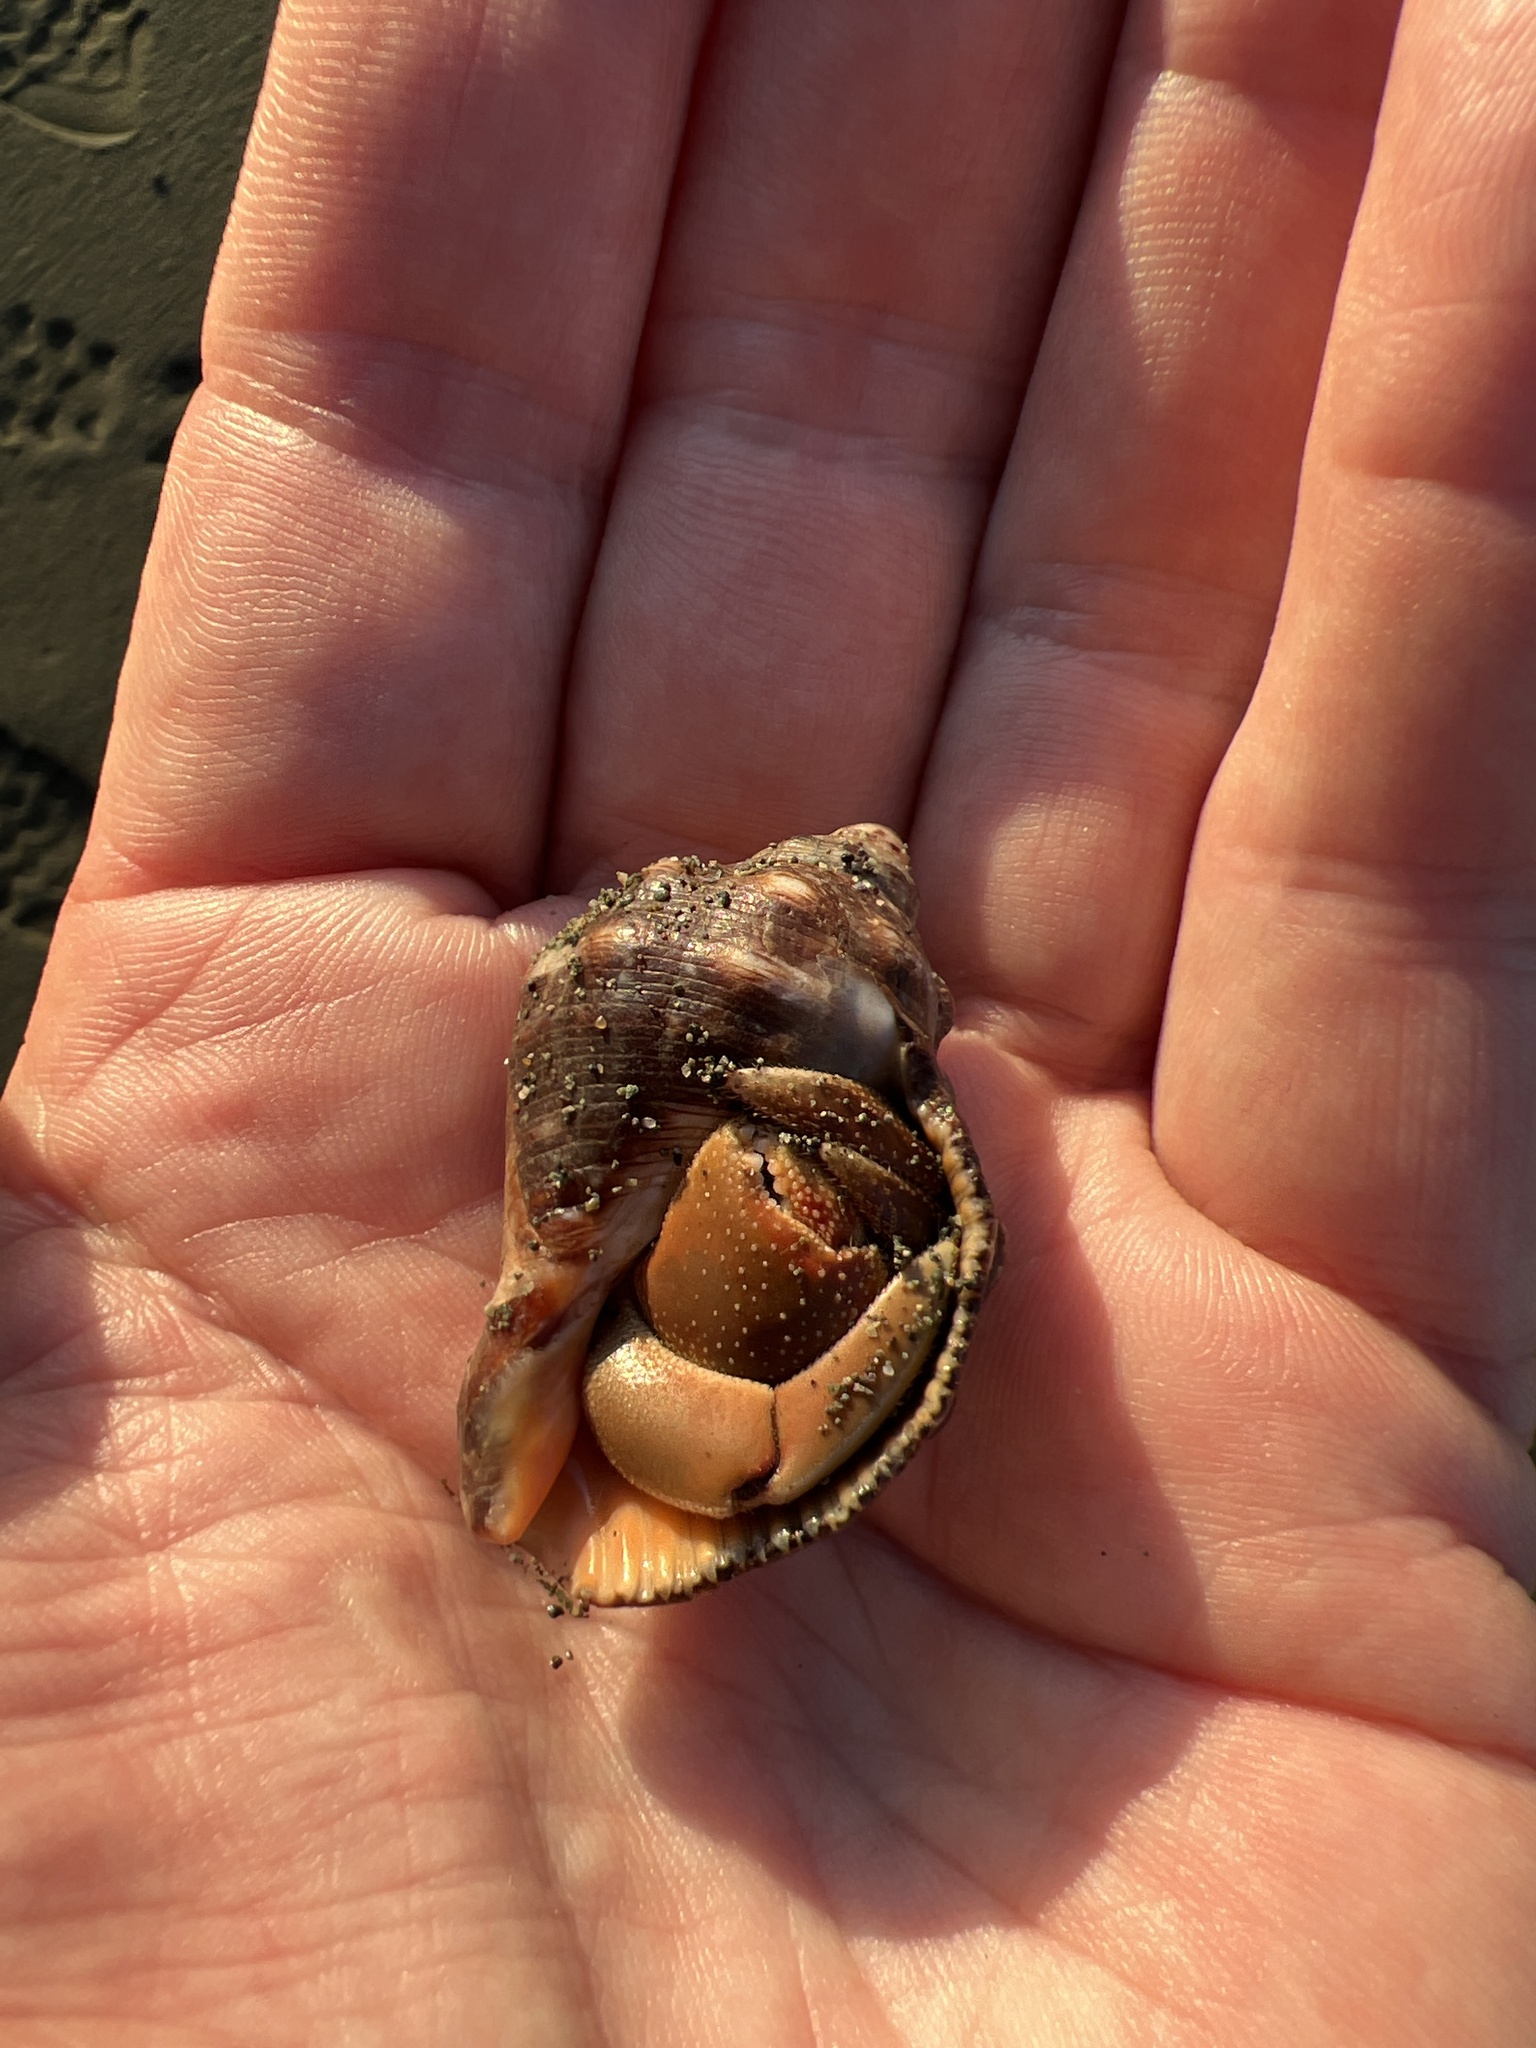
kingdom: Animalia
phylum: Arthropoda
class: Malacostraca
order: Decapoda
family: Coenobitidae
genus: Coenobita
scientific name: Coenobita compressus
